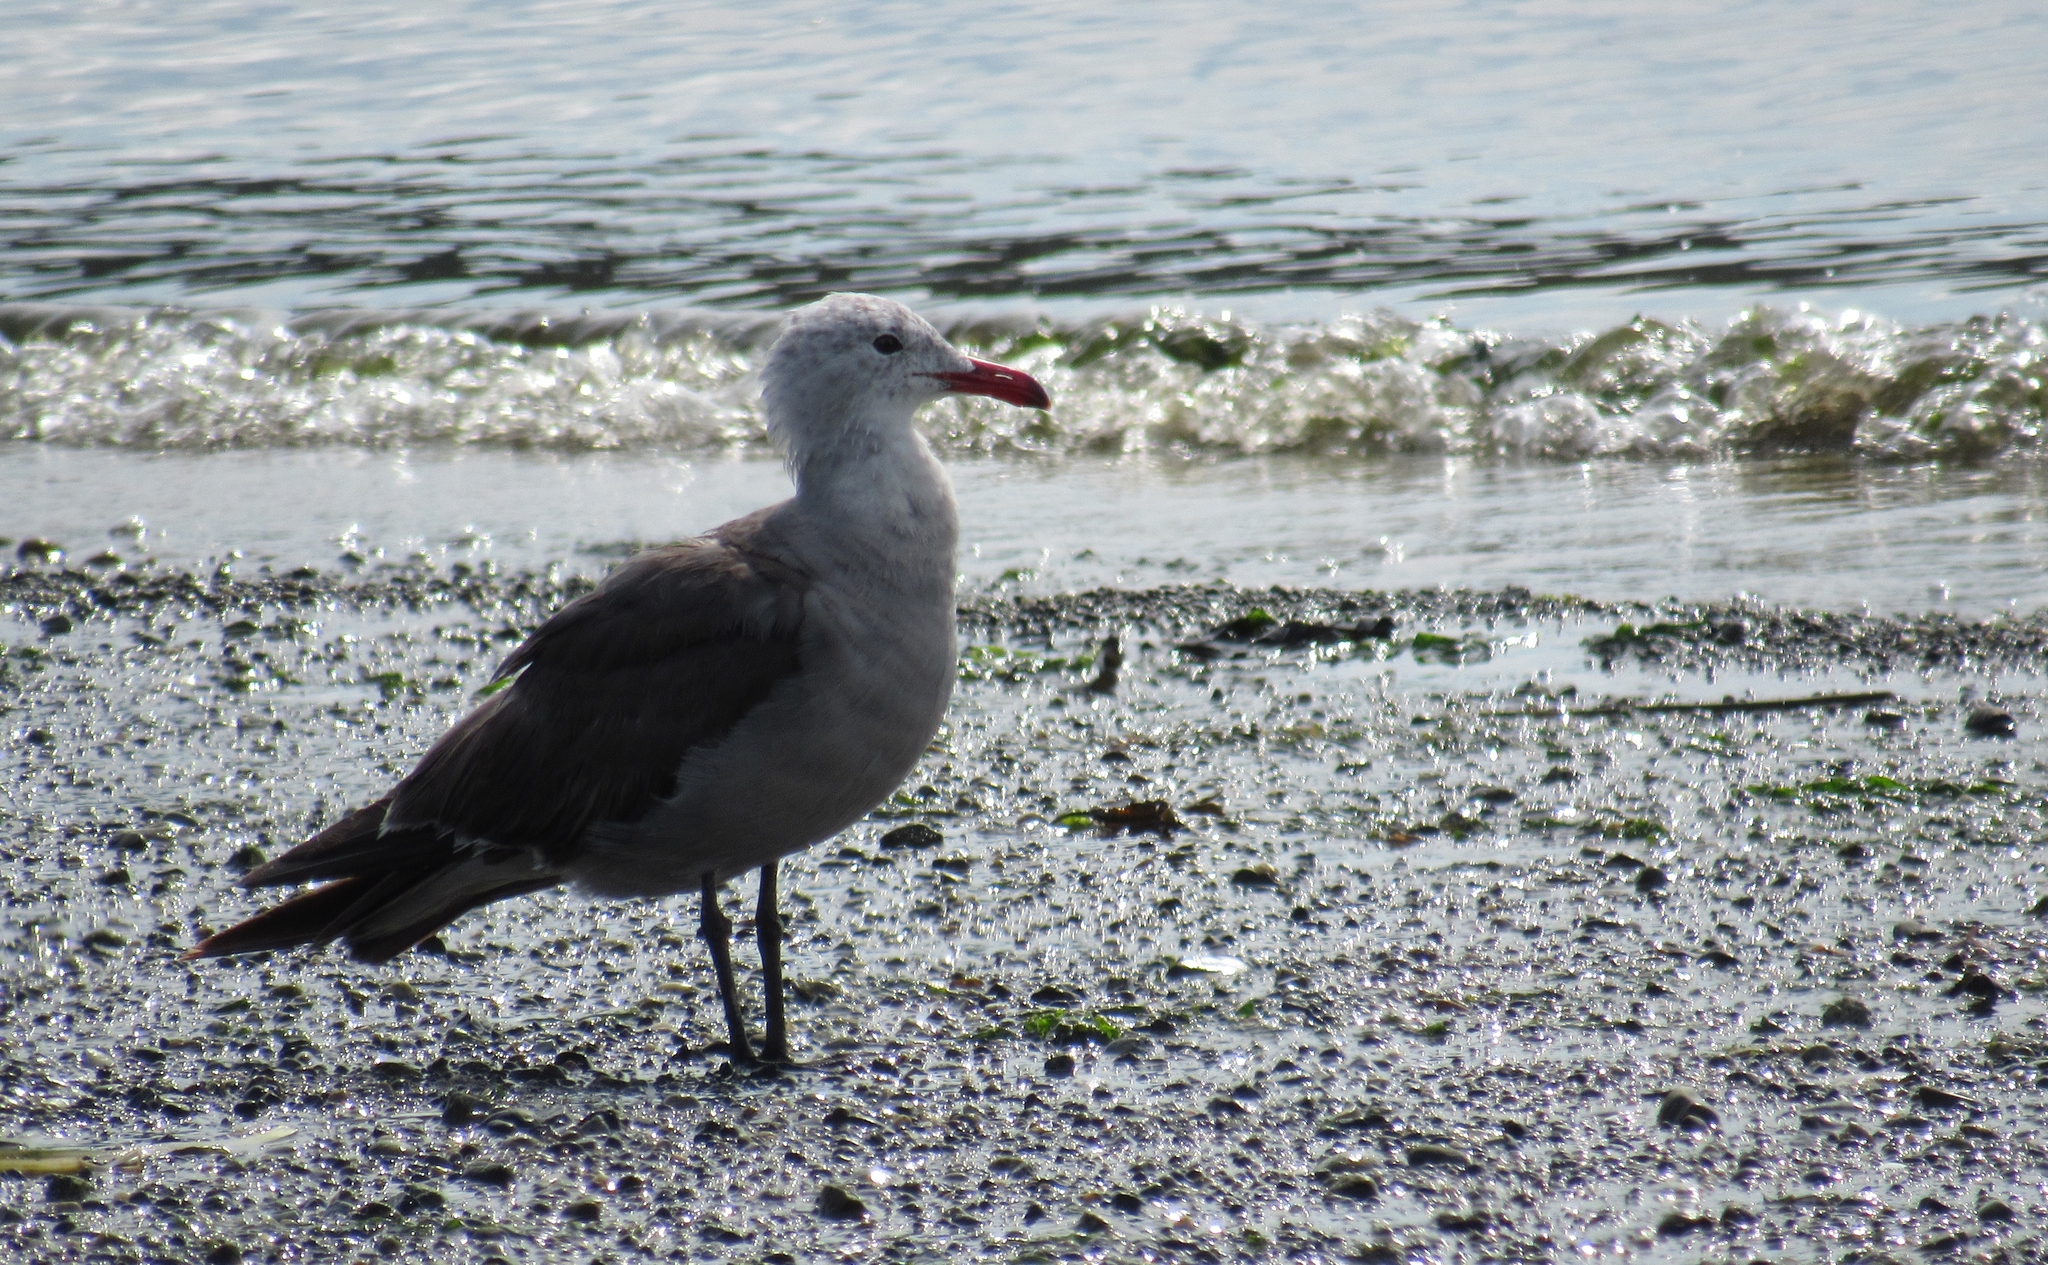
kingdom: Animalia
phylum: Chordata
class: Aves
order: Charadriiformes
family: Laridae
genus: Larus
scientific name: Larus heermanni
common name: Heermann's gull
